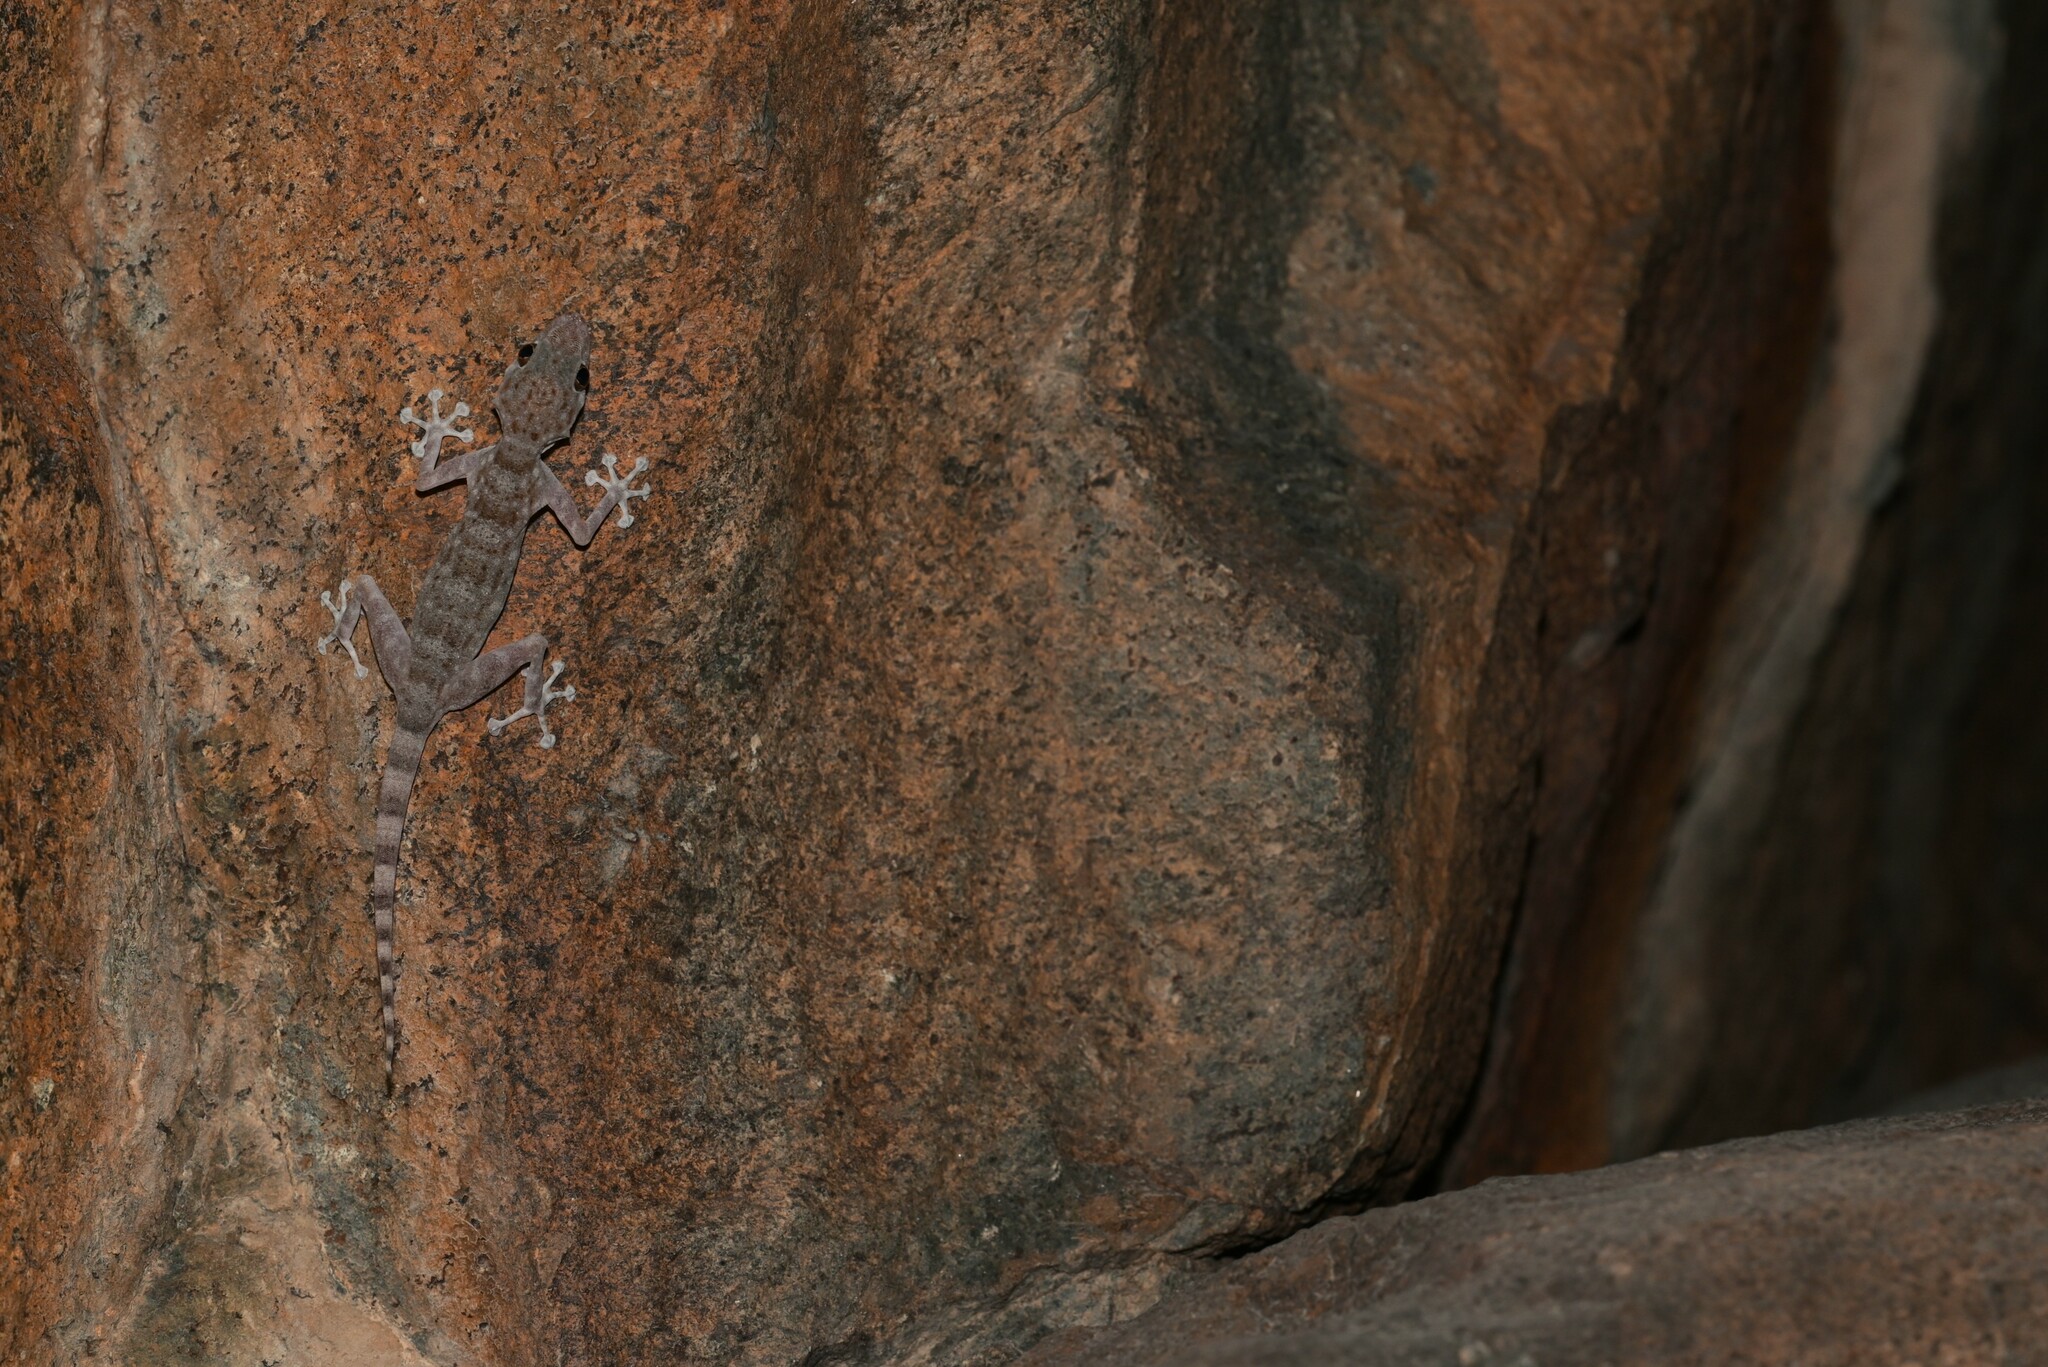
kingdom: Animalia
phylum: Chordata
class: Squamata
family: Phyllodactylidae
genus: Ptyodactylus
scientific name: Ptyodactylus orlovi
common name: Orlov's fan-footed gecko
